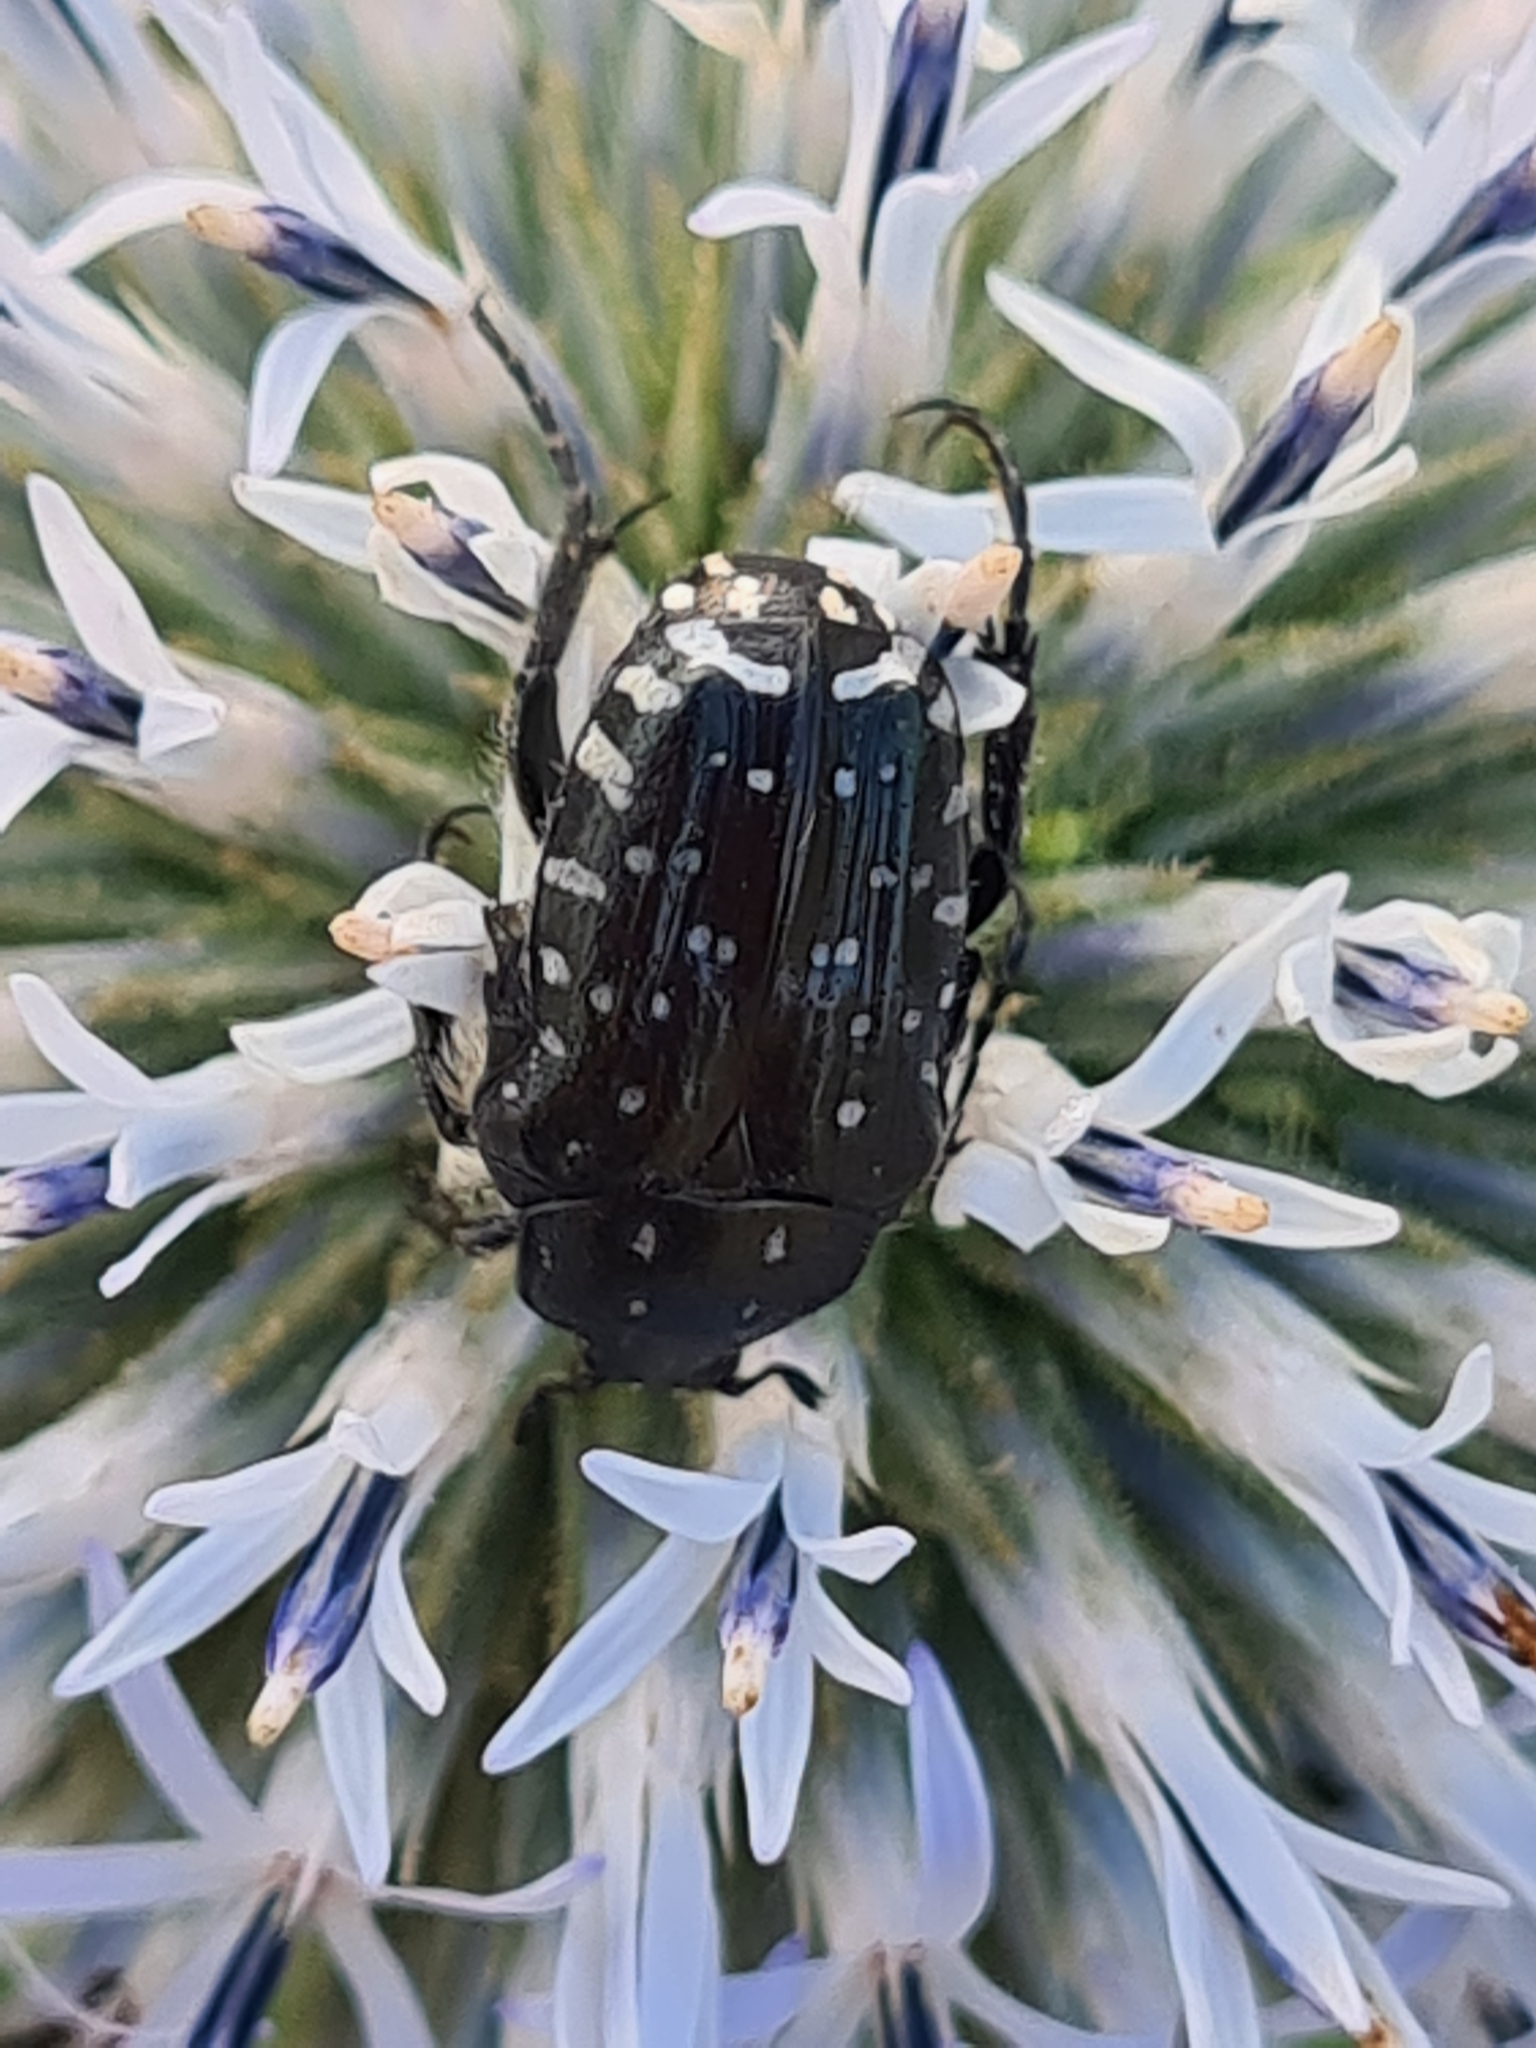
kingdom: Animalia
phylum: Arthropoda
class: Insecta
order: Coleoptera
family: Scarabaeidae
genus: Oxythyrea
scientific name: Oxythyrea funesta
